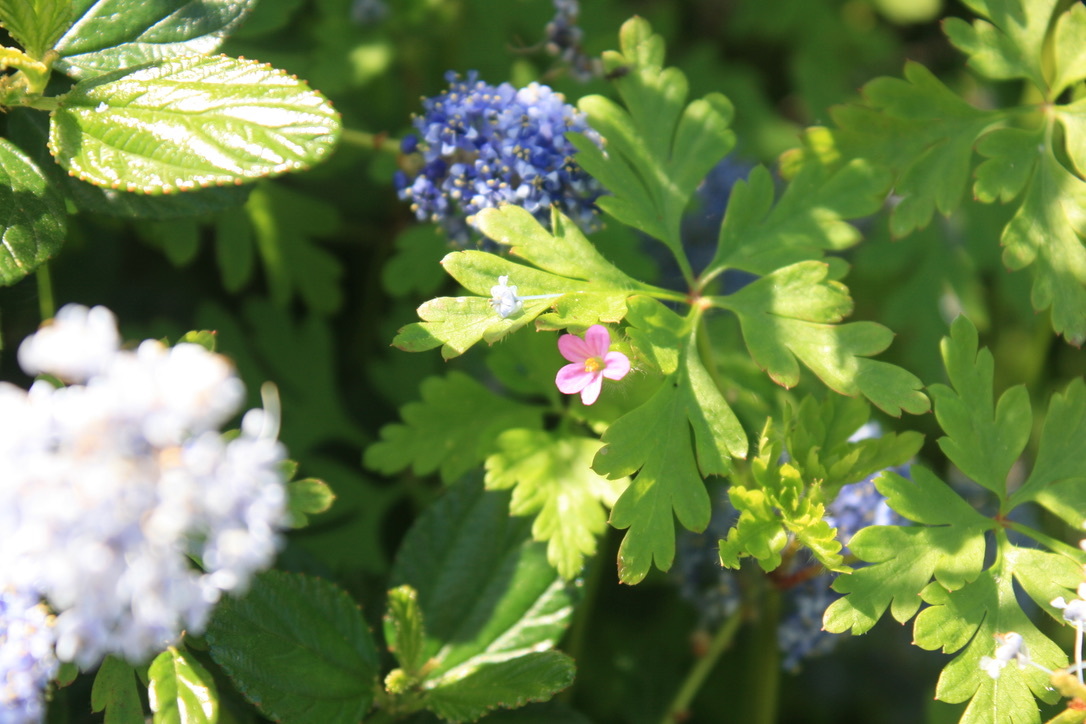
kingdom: Plantae
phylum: Tracheophyta
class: Magnoliopsida
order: Geraniales
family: Geraniaceae
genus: Geranium
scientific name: Geranium robertianum
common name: Herb-robert
